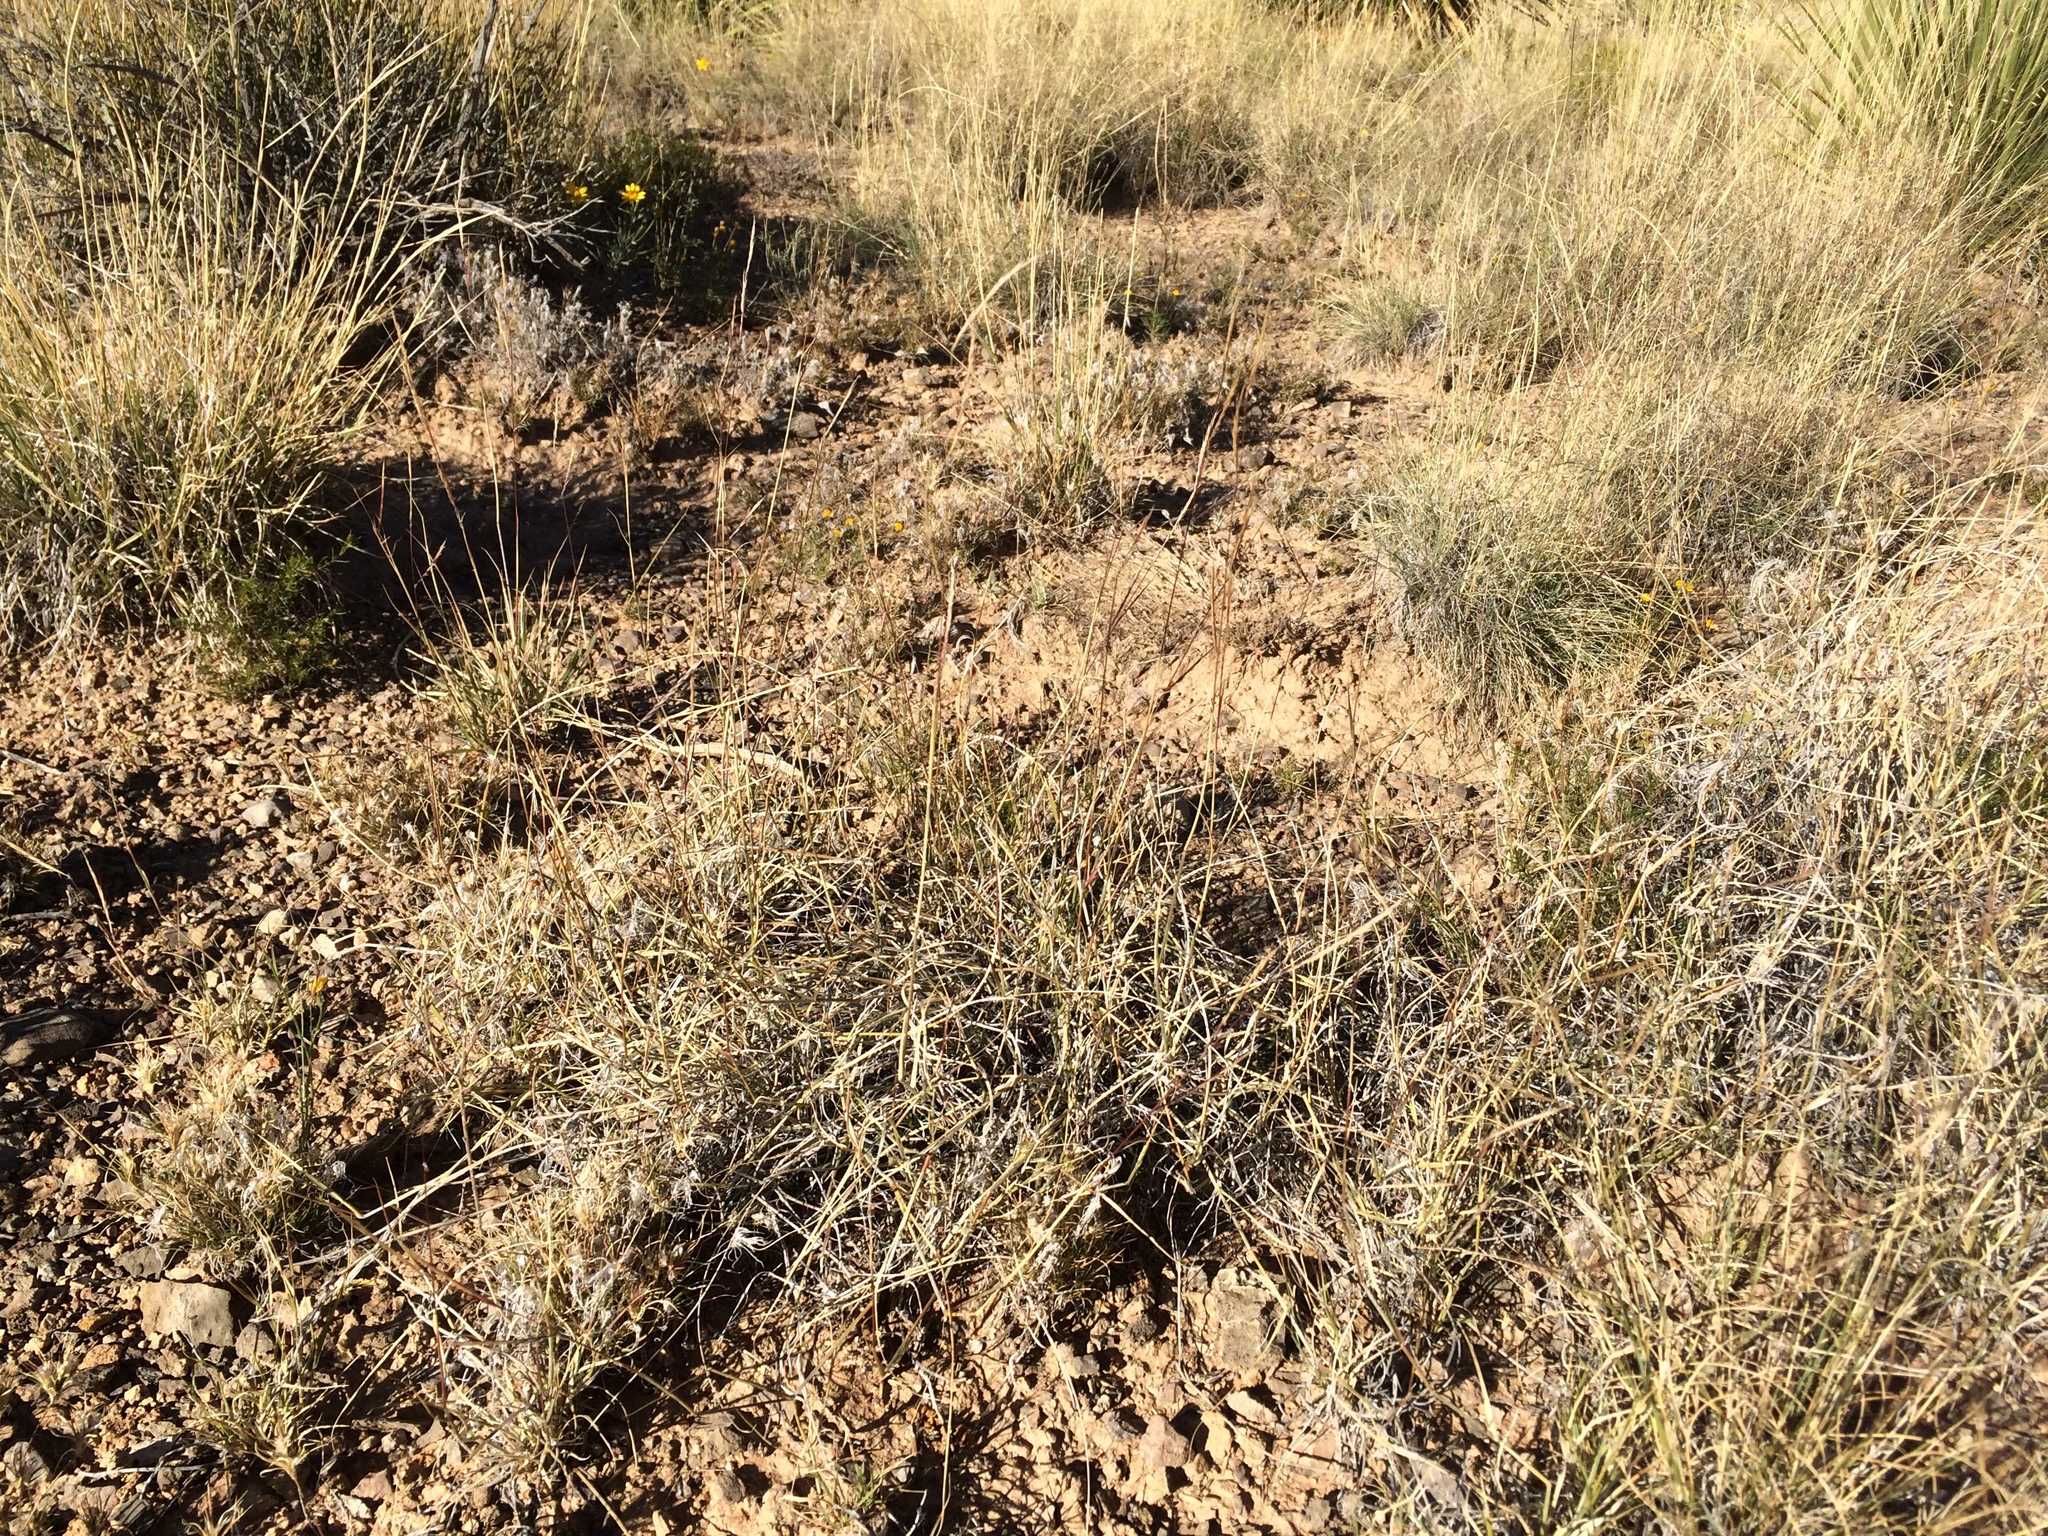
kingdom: Plantae
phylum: Tracheophyta
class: Liliopsida
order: Poales
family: Poaceae
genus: Bouteloua
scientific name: Bouteloua eriopoda
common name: Woolly foot grama
